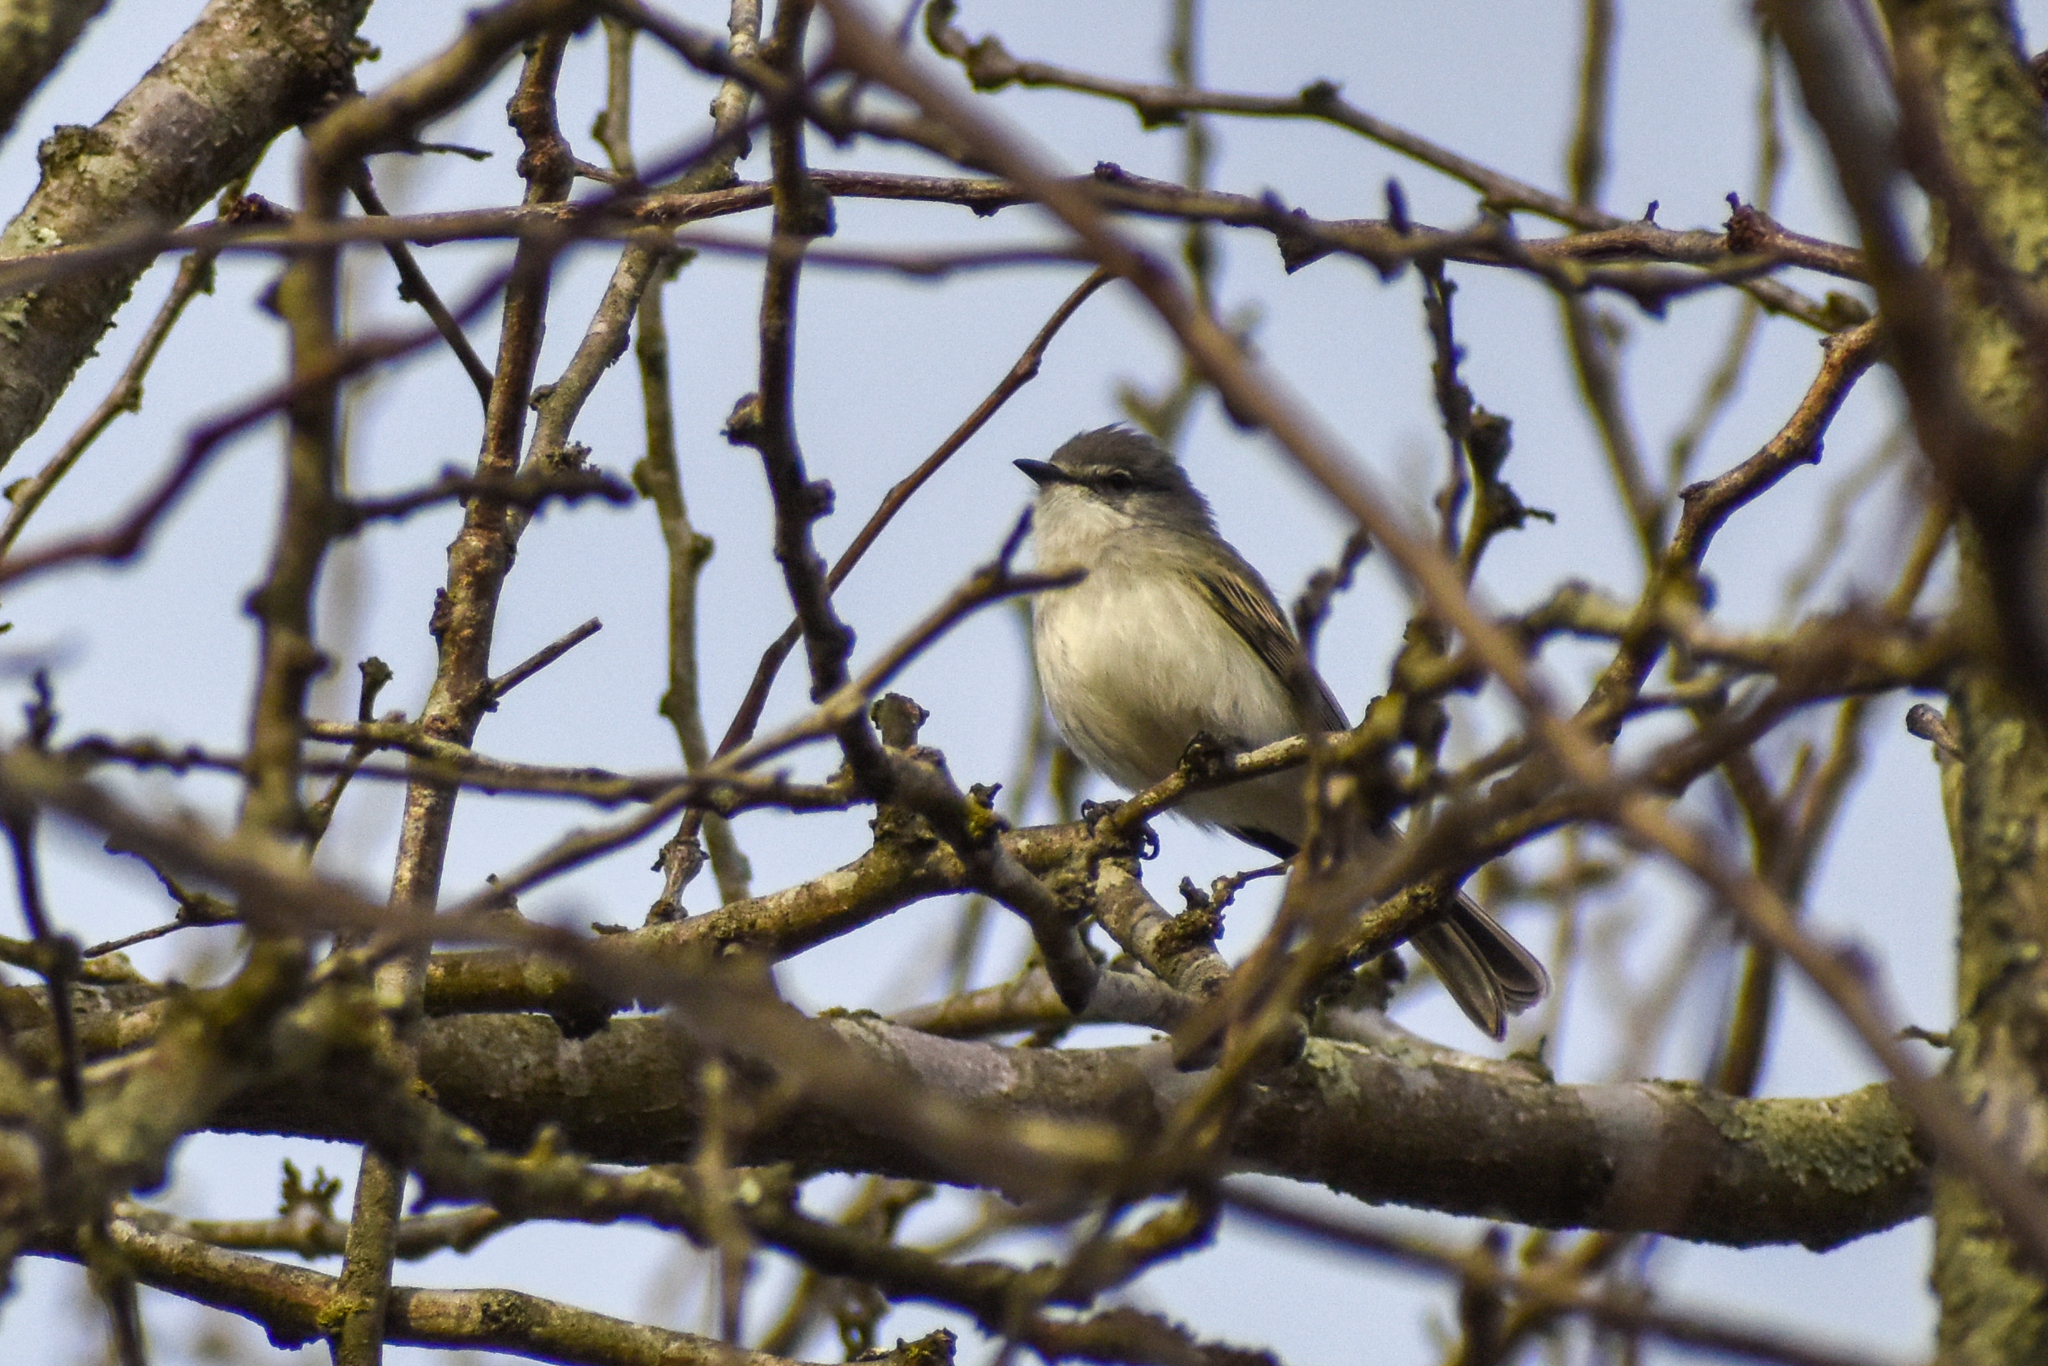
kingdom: Animalia
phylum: Chordata
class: Aves
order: Passeriformes
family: Tyrannidae
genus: Suiriri
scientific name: Suiriri suiriri
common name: Suiriri flycatcher
